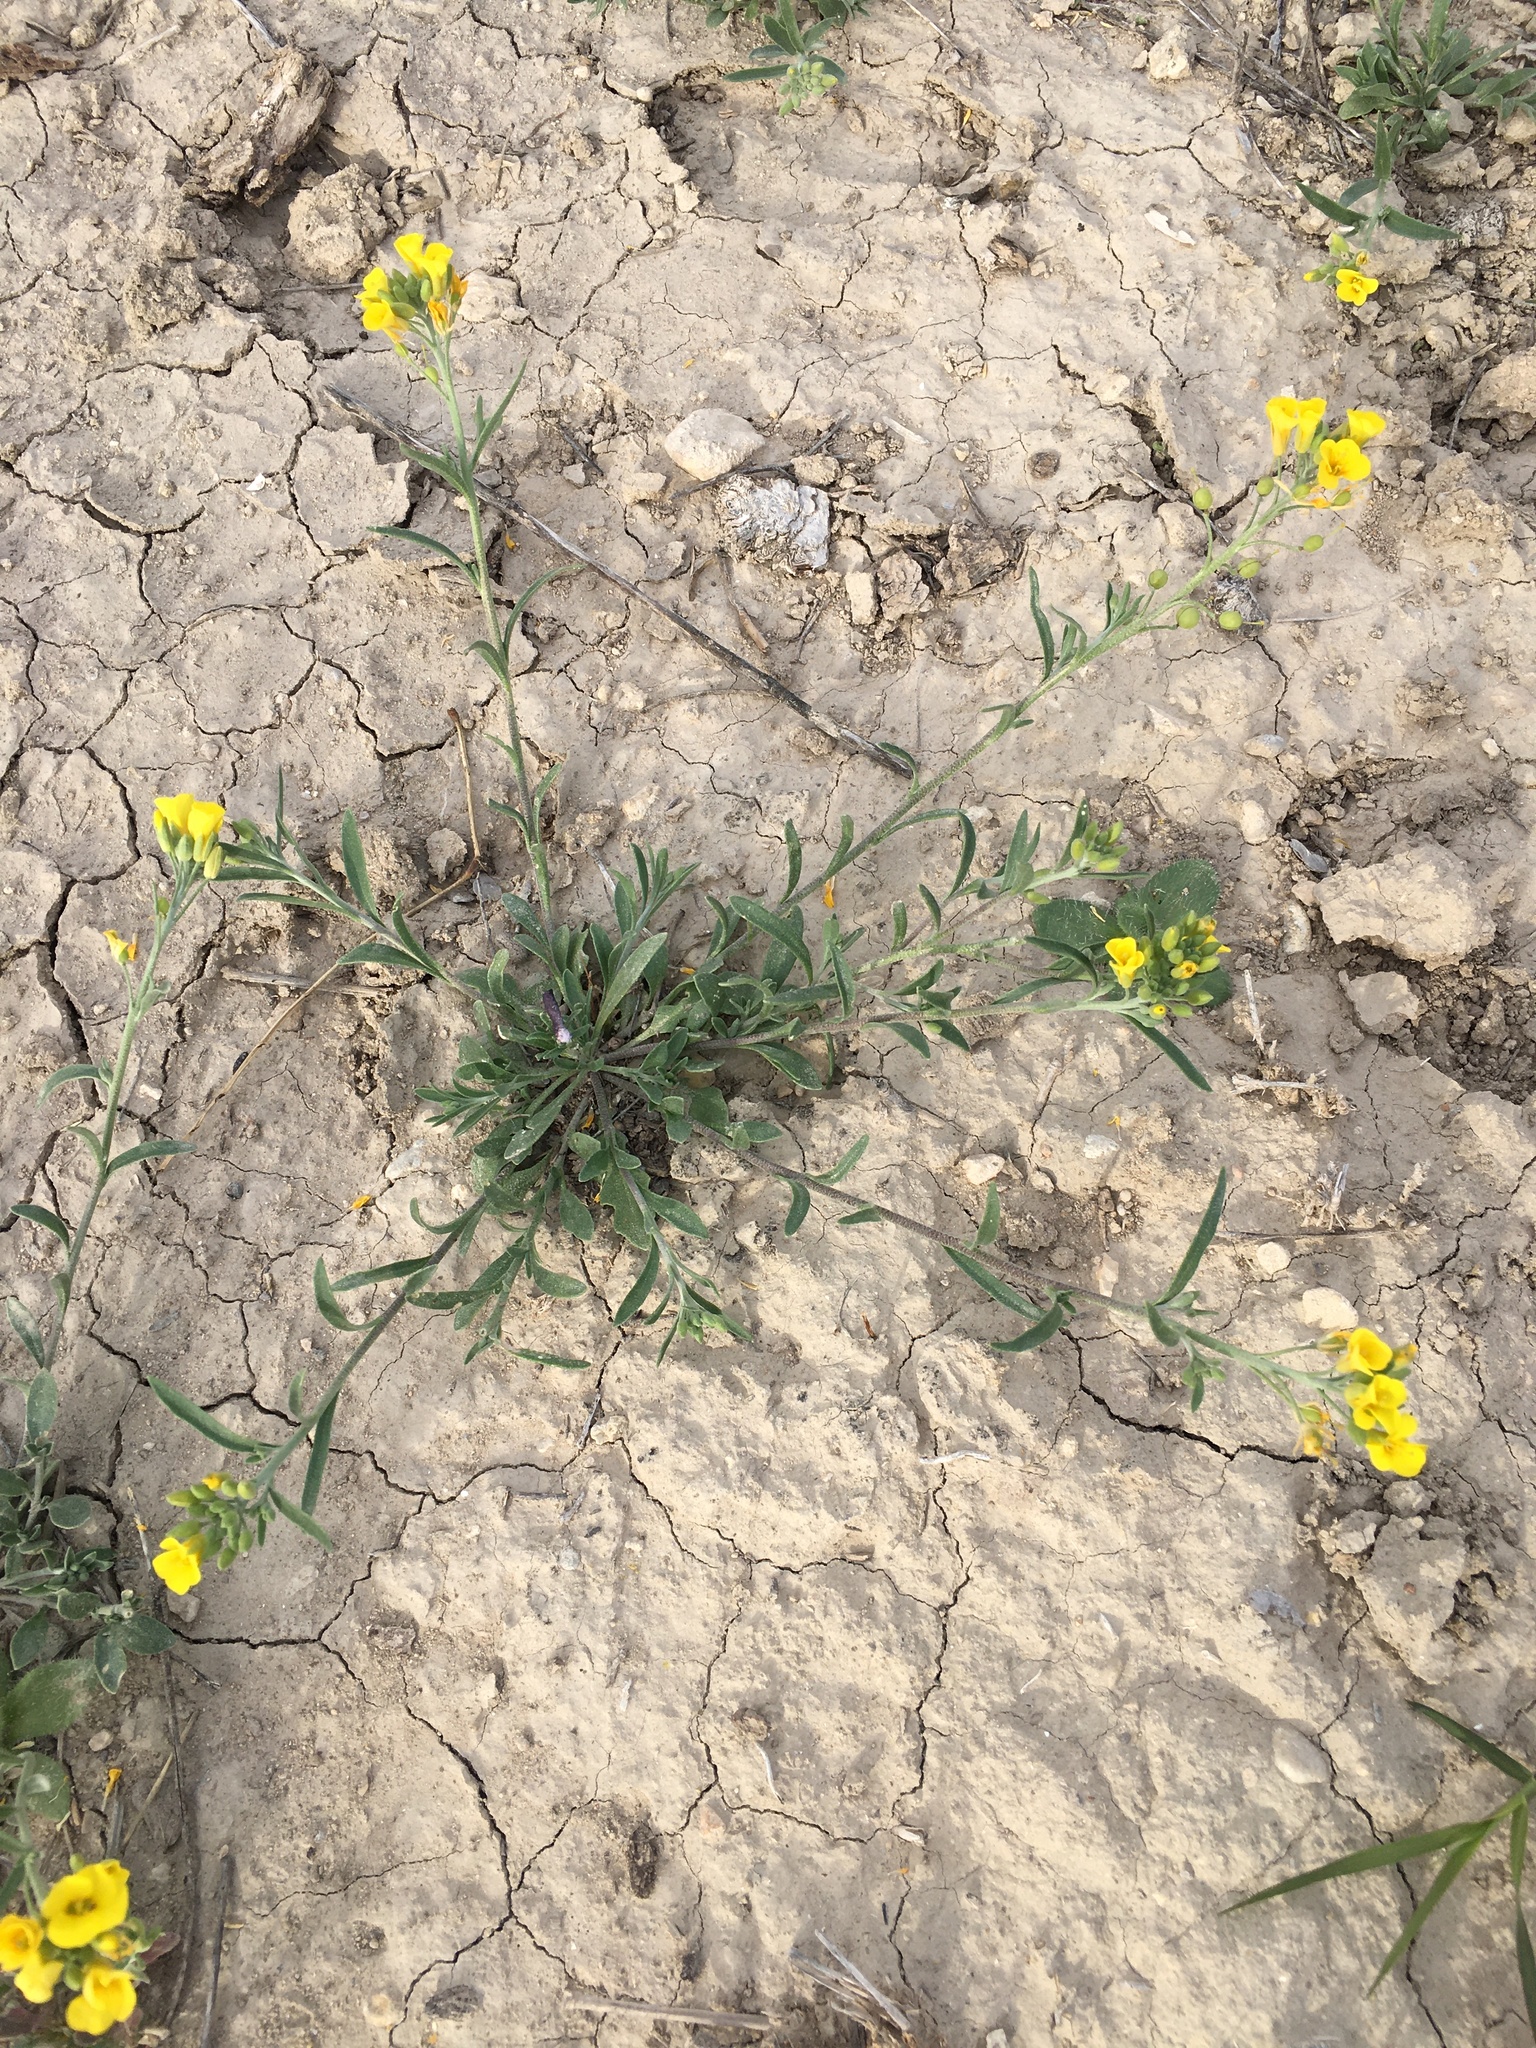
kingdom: Plantae
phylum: Tracheophyta
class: Magnoliopsida
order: Brassicales
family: Brassicaceae
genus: Physaria
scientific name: Physaria gordonii
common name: Gordon's bladderpod
